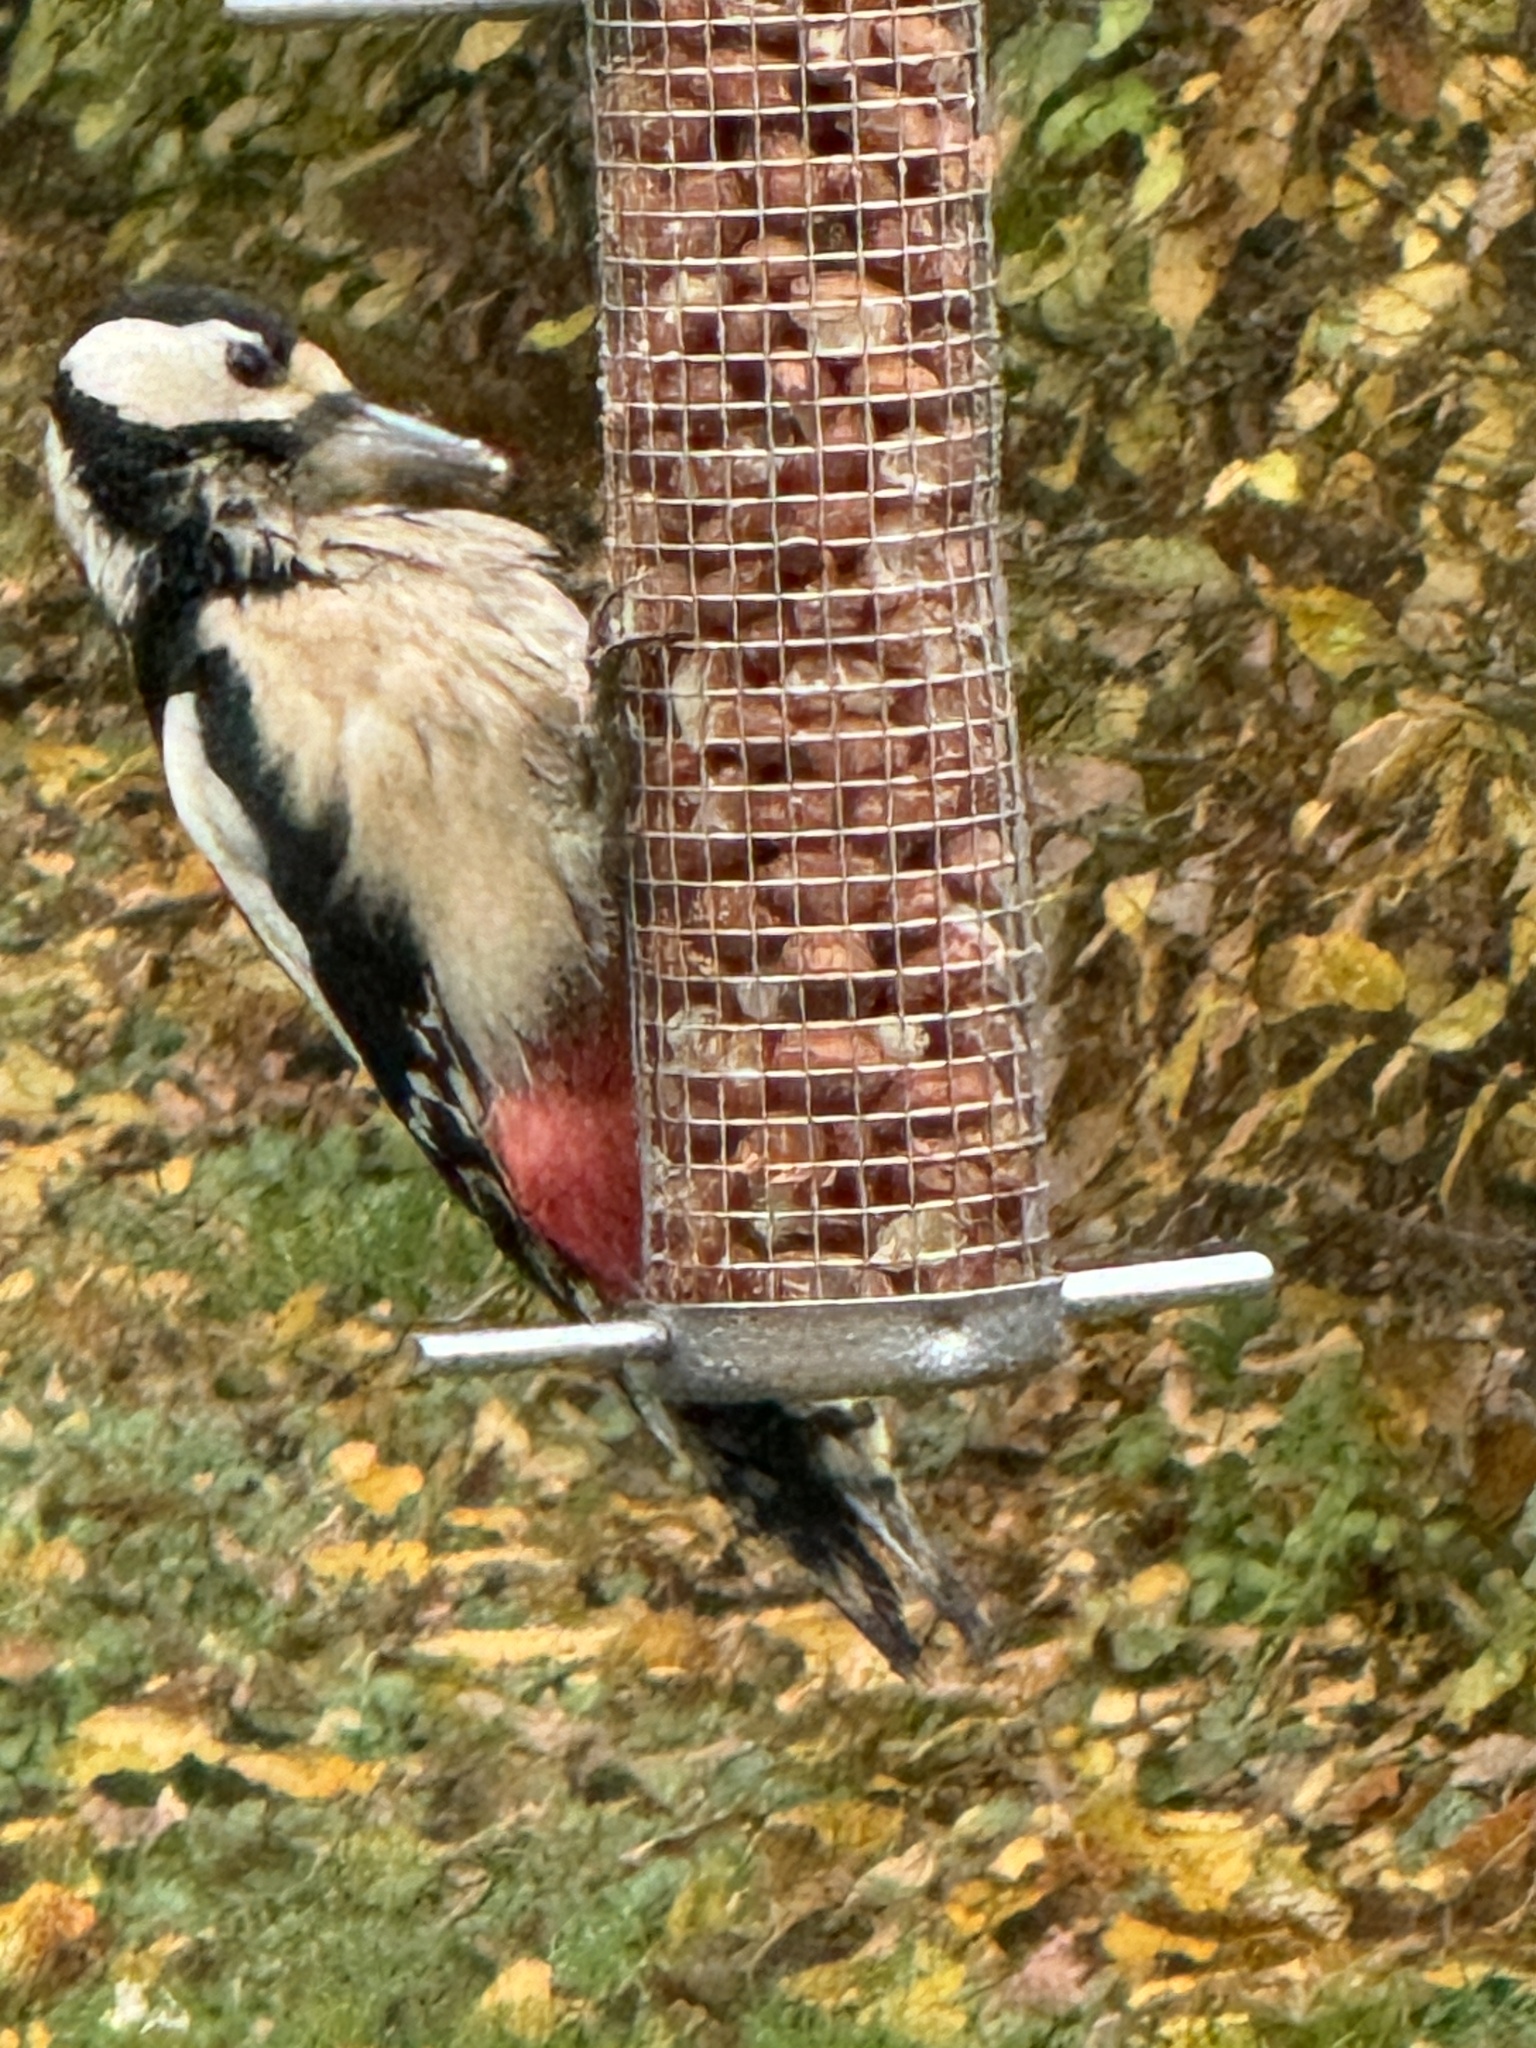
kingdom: Animalia
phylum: Chordata
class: Aves
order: Piciformes
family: Picidae
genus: Dendrocopos
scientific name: Dendrocopos major
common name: Great spotted woodpecker
